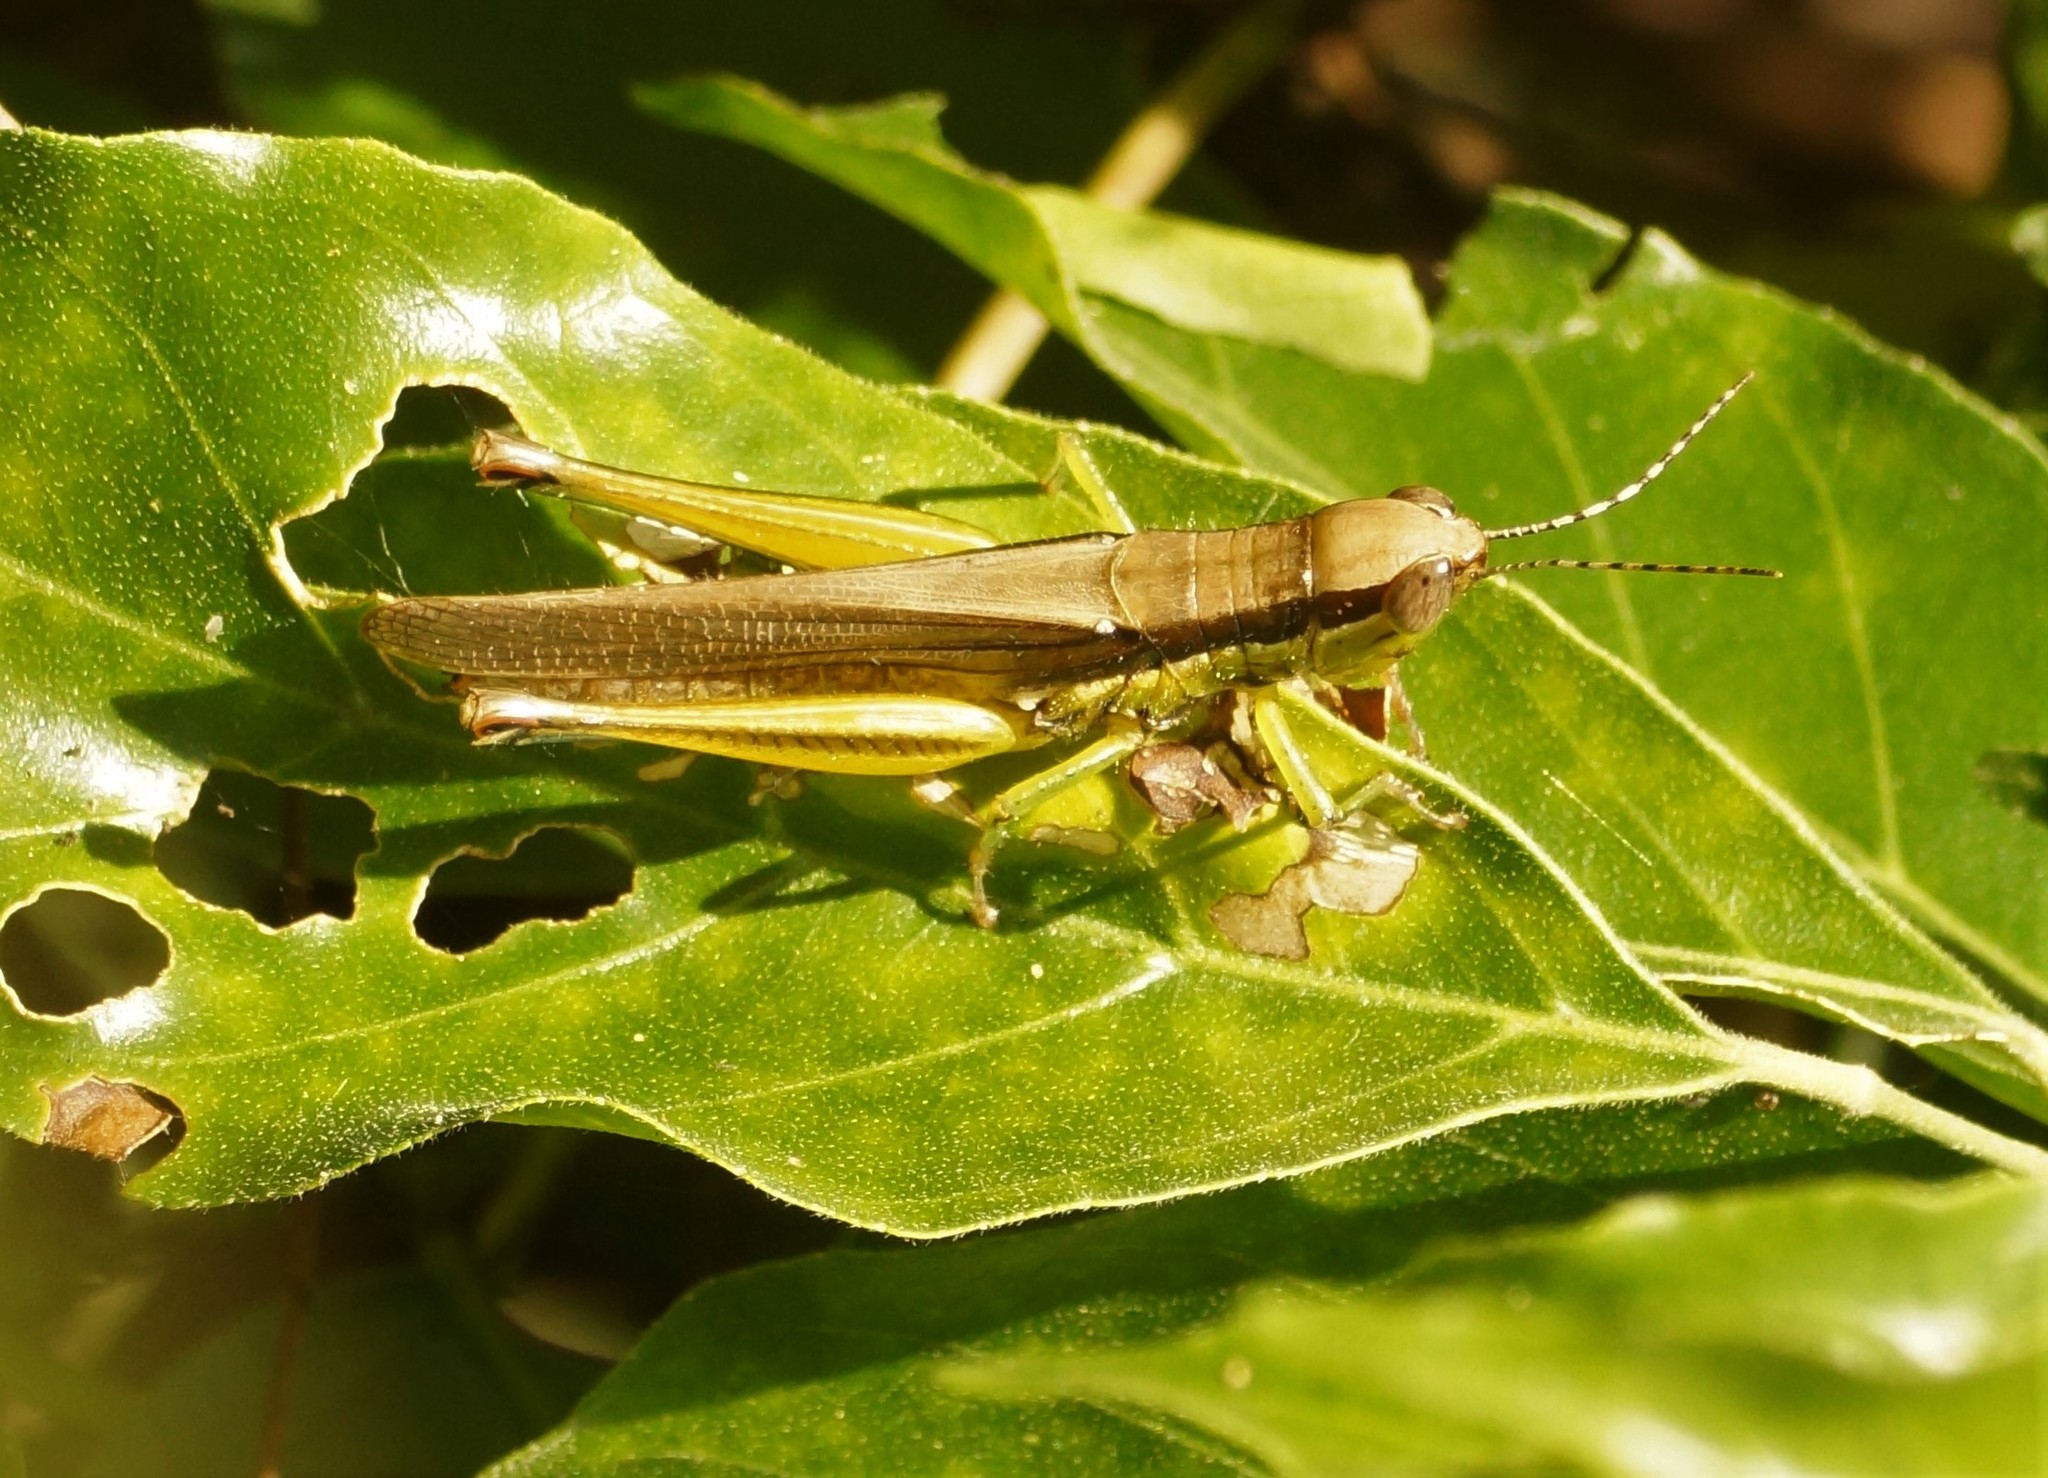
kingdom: Animalia
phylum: Arthropoda
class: Insecta
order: Orthoptera
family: Acrididae
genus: Bermius
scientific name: Bermius curvicercus
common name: Sorghum bermius
